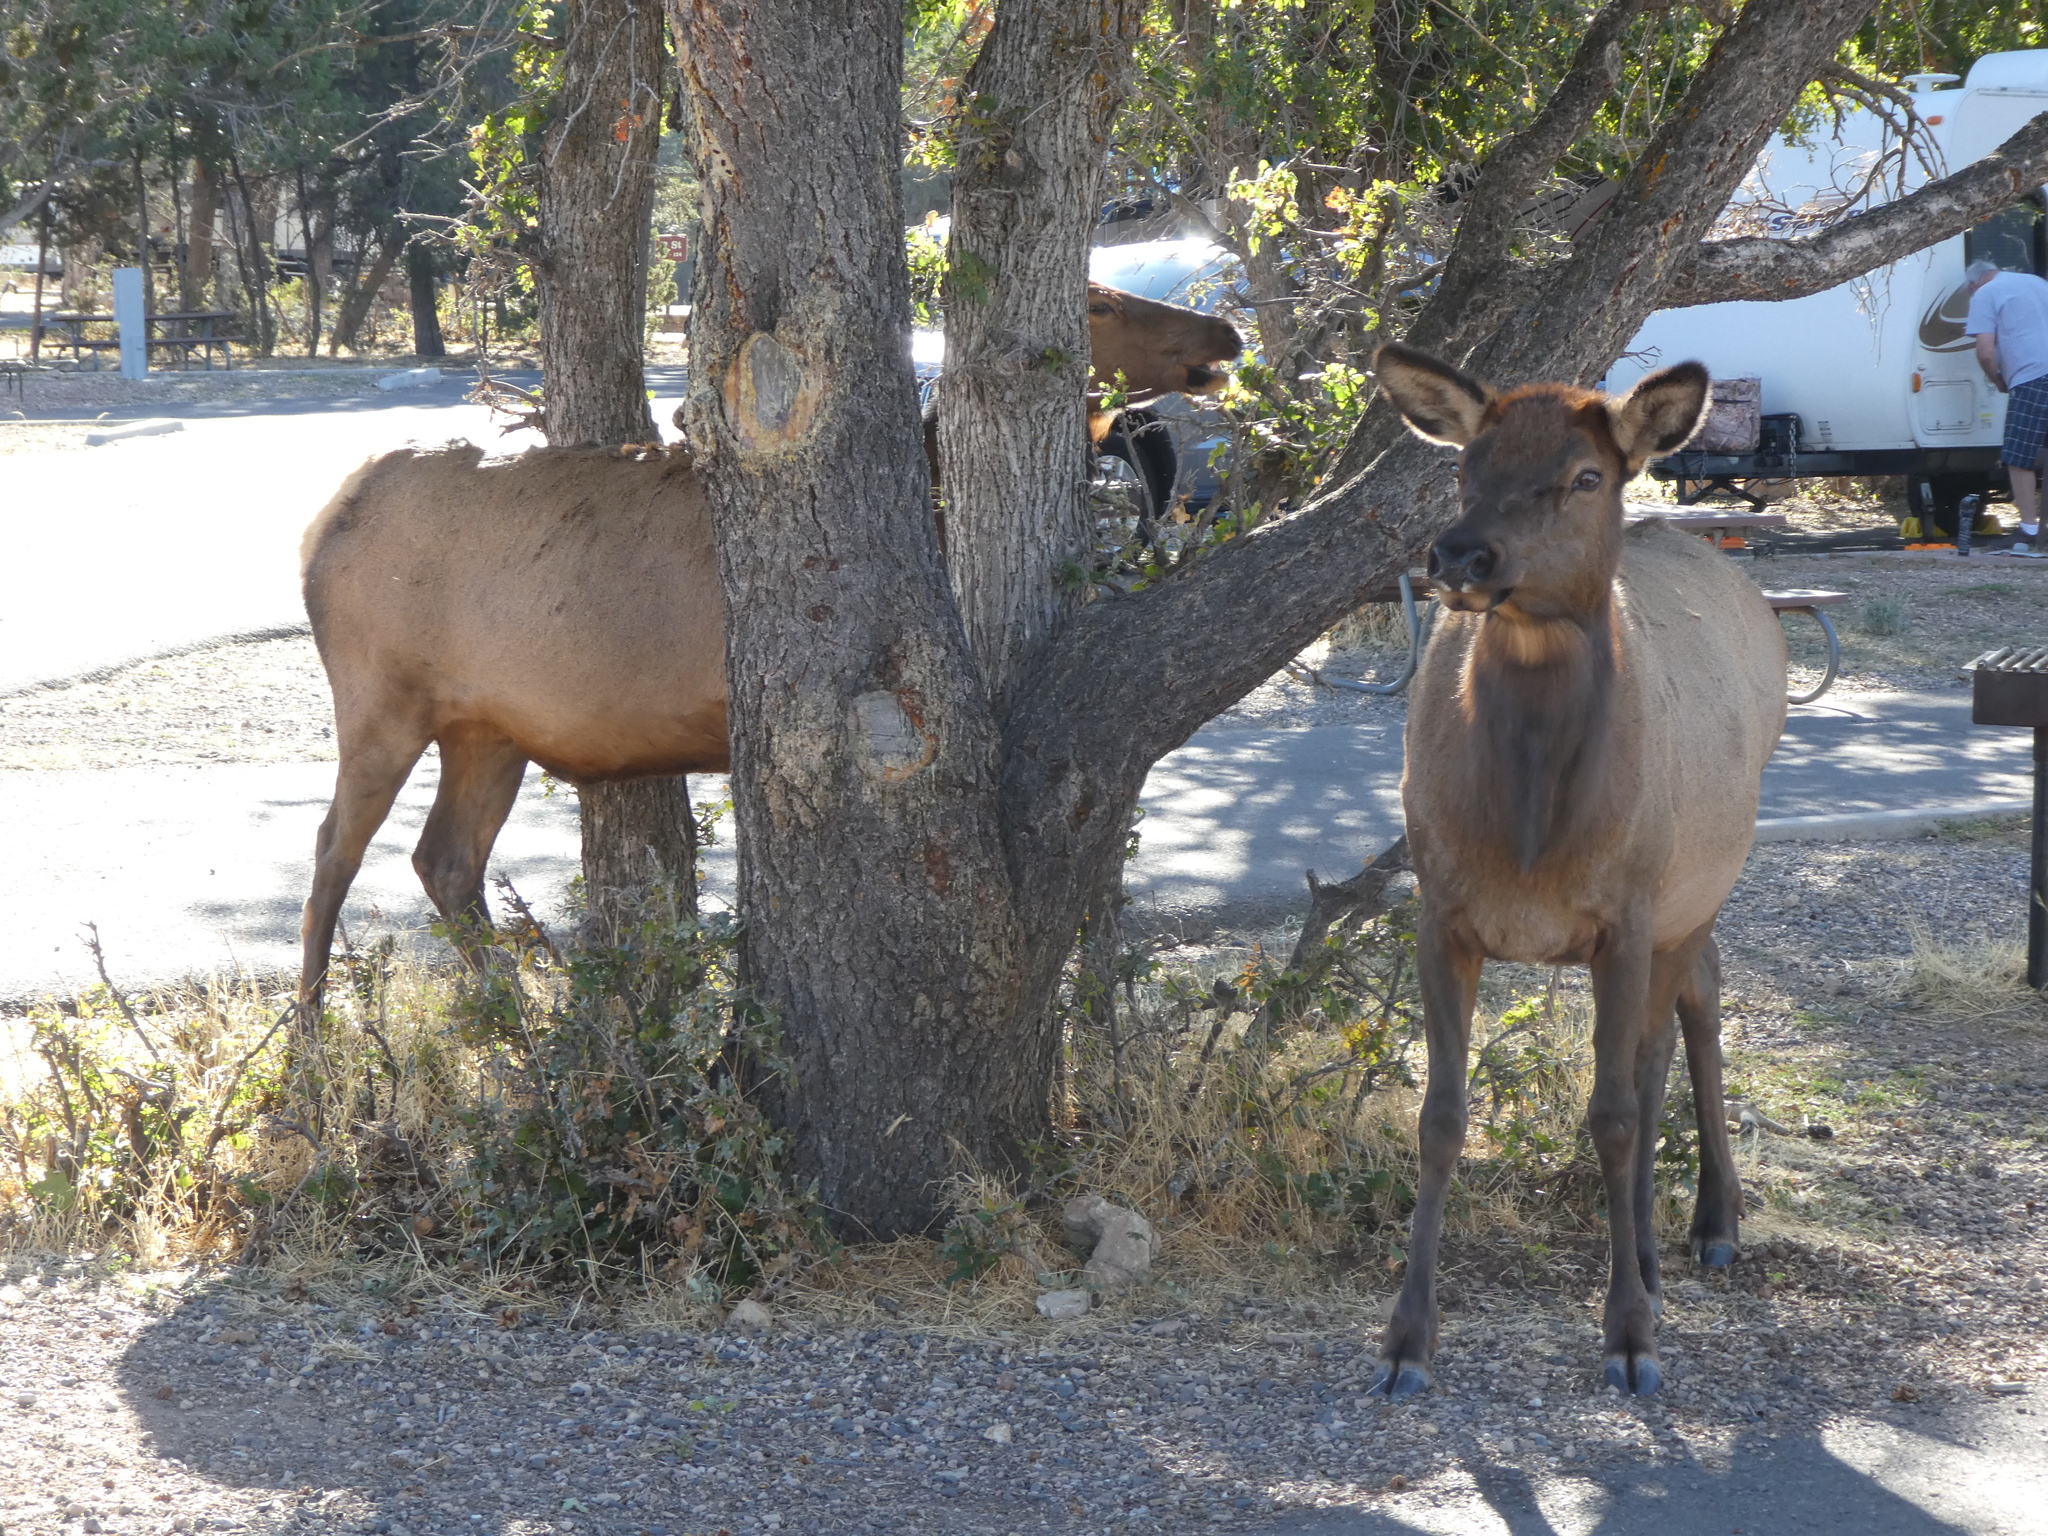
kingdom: Animalia
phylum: Chordata
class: Mammalia
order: Artiodactyla
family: Cervidae
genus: Cervus
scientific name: Cervus elaphus
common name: Red deer
